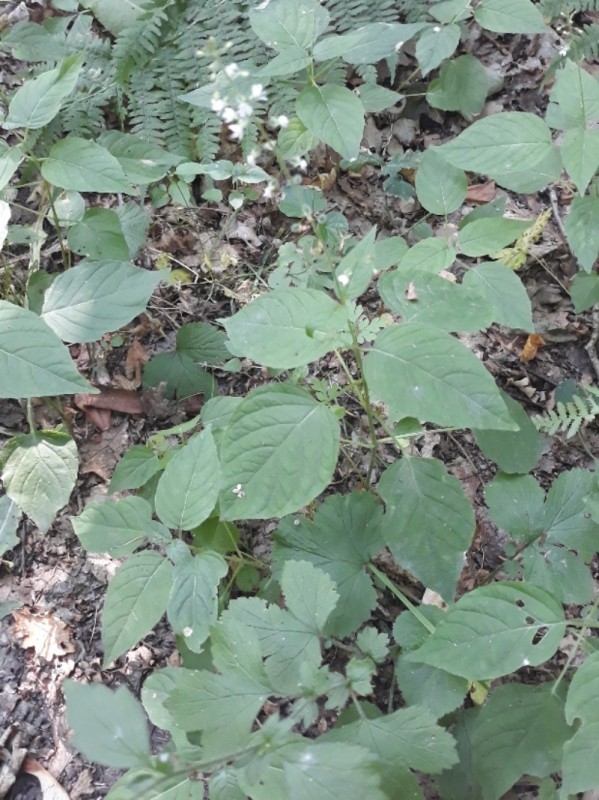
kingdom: Plantae
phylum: Tracheophyta
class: Magnoliopsida
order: Myrtales
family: Onagraceae
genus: Circaea
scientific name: Circaea lutetiana
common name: Enchanter's-nightshade
